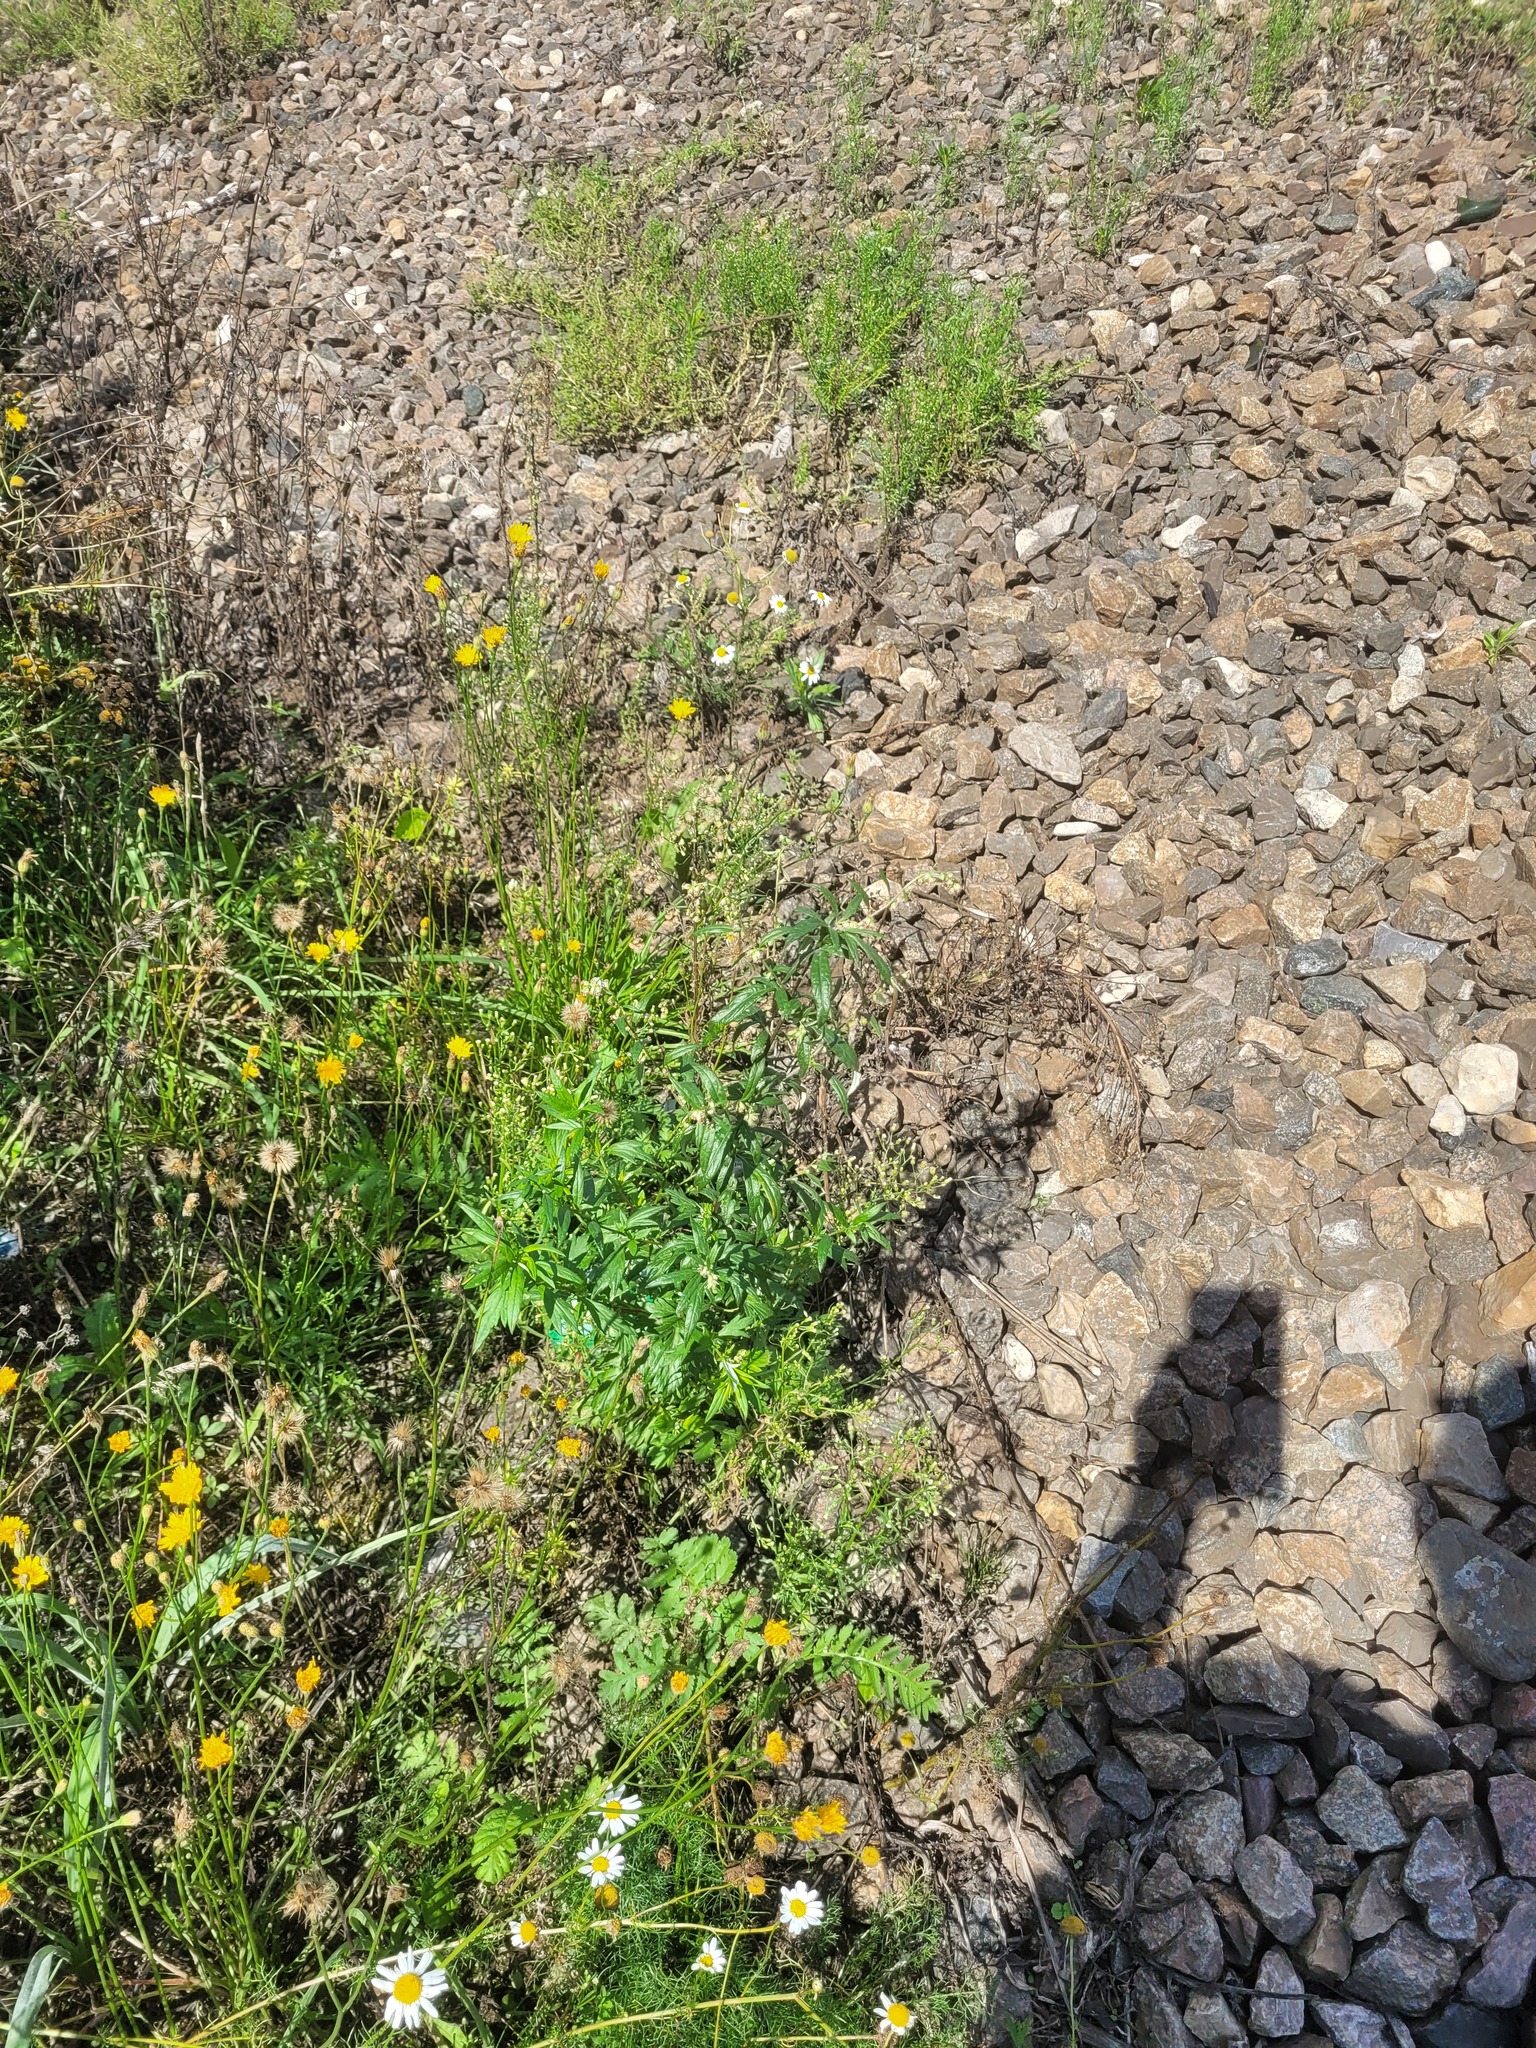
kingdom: Plantae
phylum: Tracheophyta
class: Magnoliopsida
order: Asterales
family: Asteraceae
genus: Artemisia
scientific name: Artemisia vulgaris
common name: Mugwort
